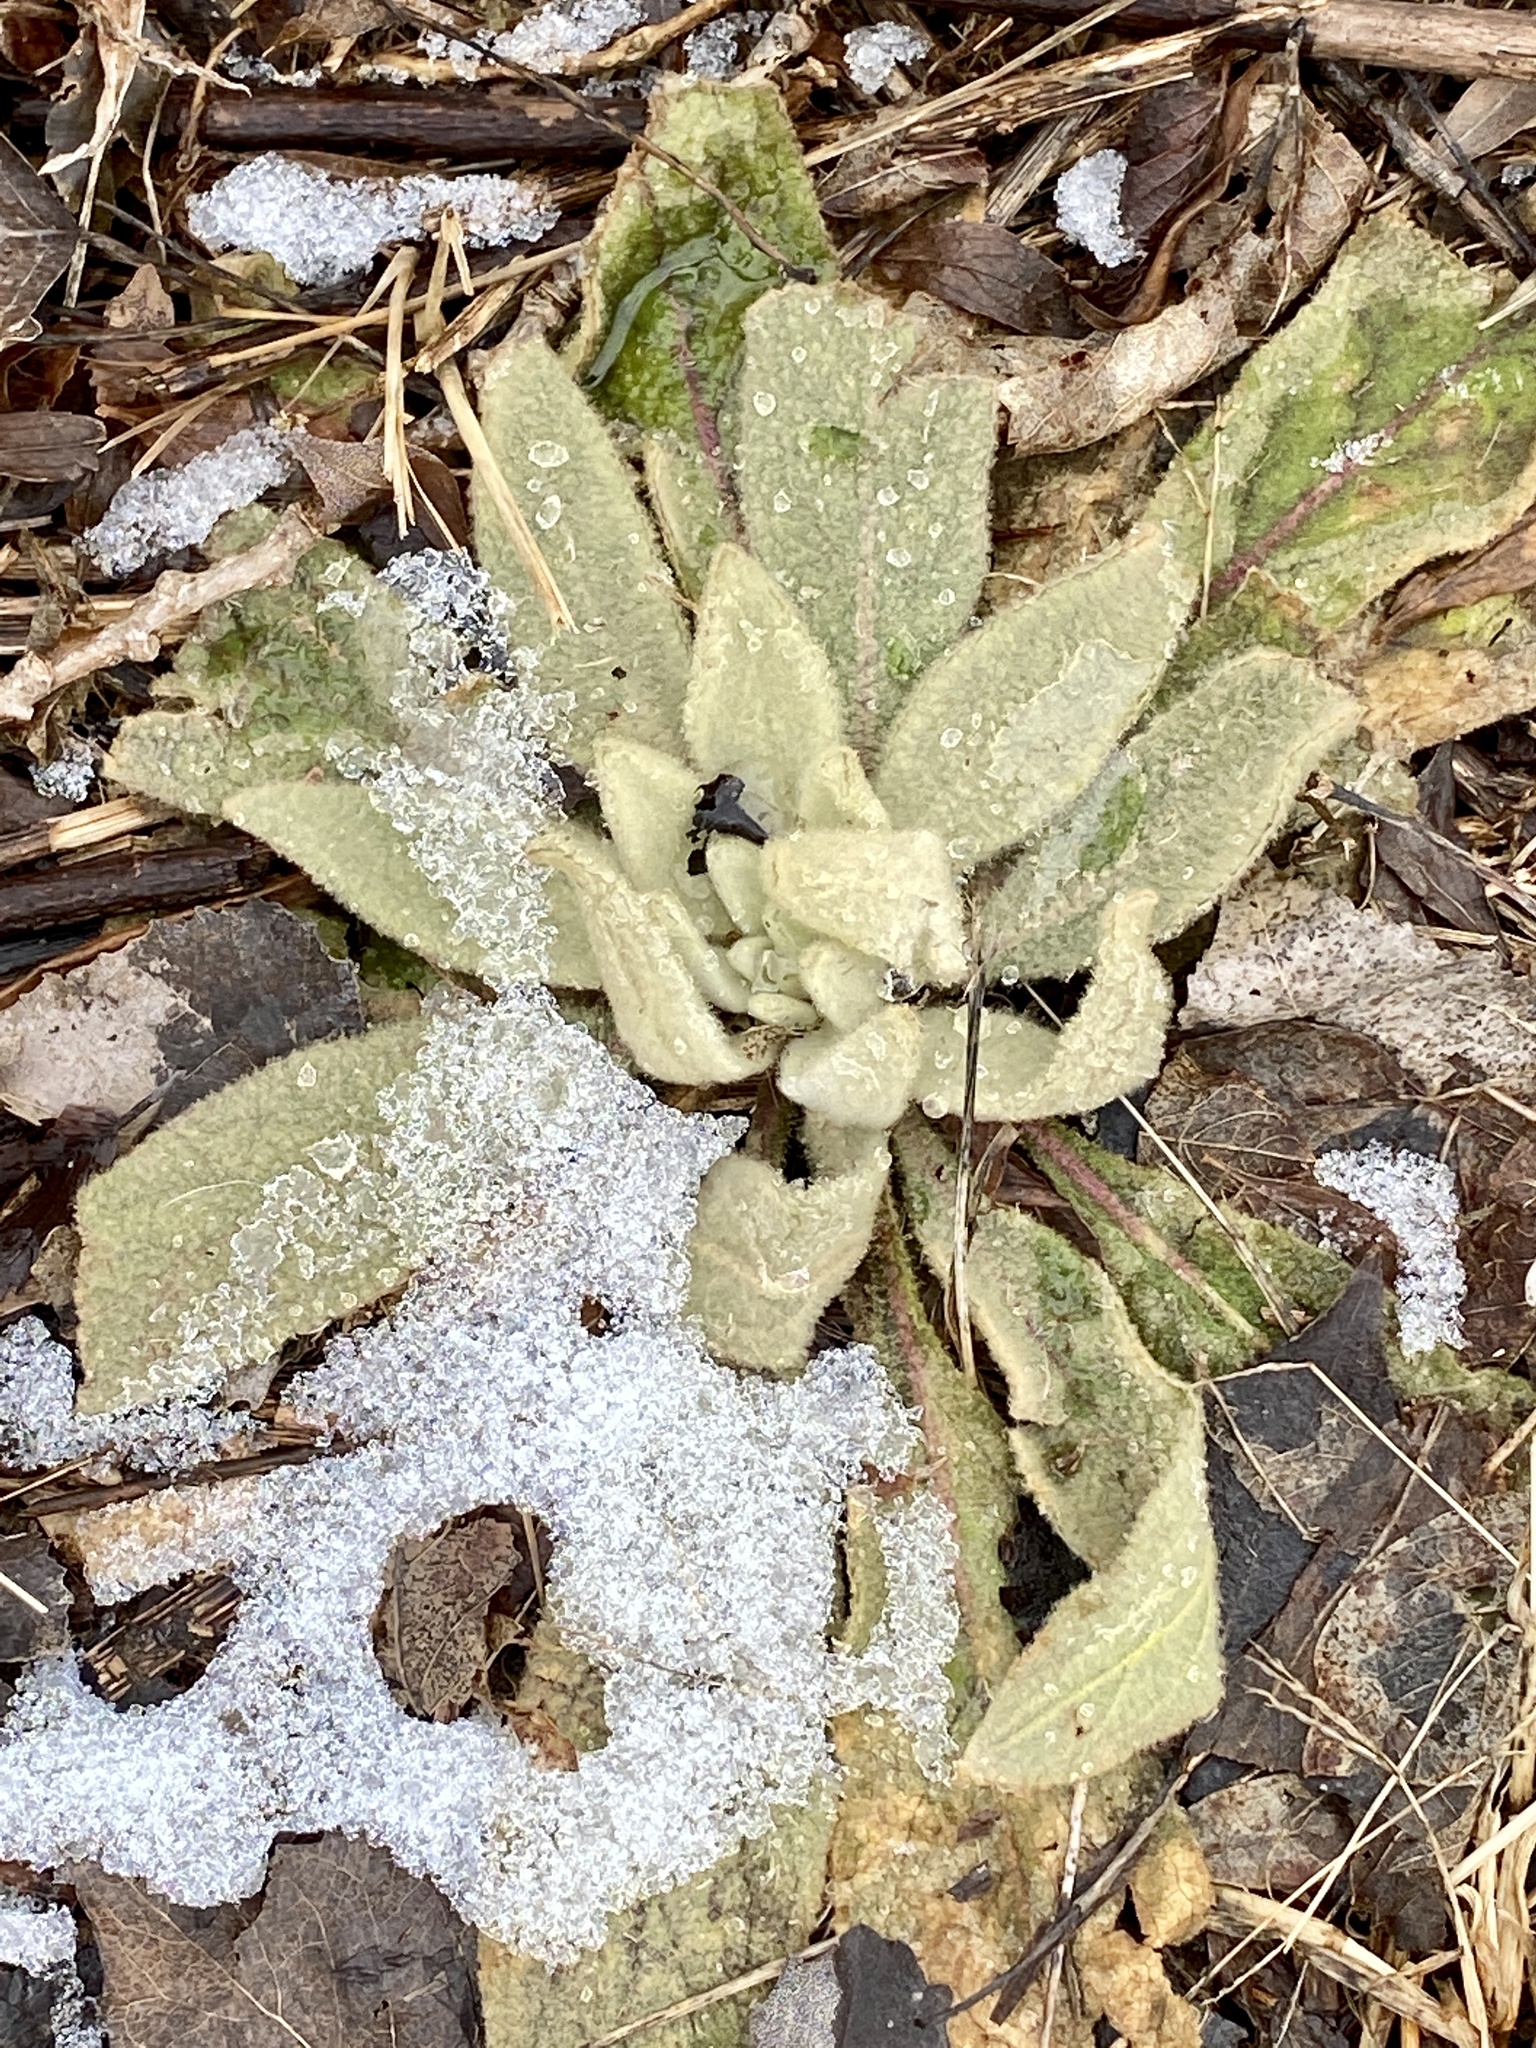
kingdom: Plantae
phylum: Tracheophyta
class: Magnoliopsida
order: Lamiales
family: Scrophulariaceae
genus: Verbascum
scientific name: Verbascum thapsus
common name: Common mullein
